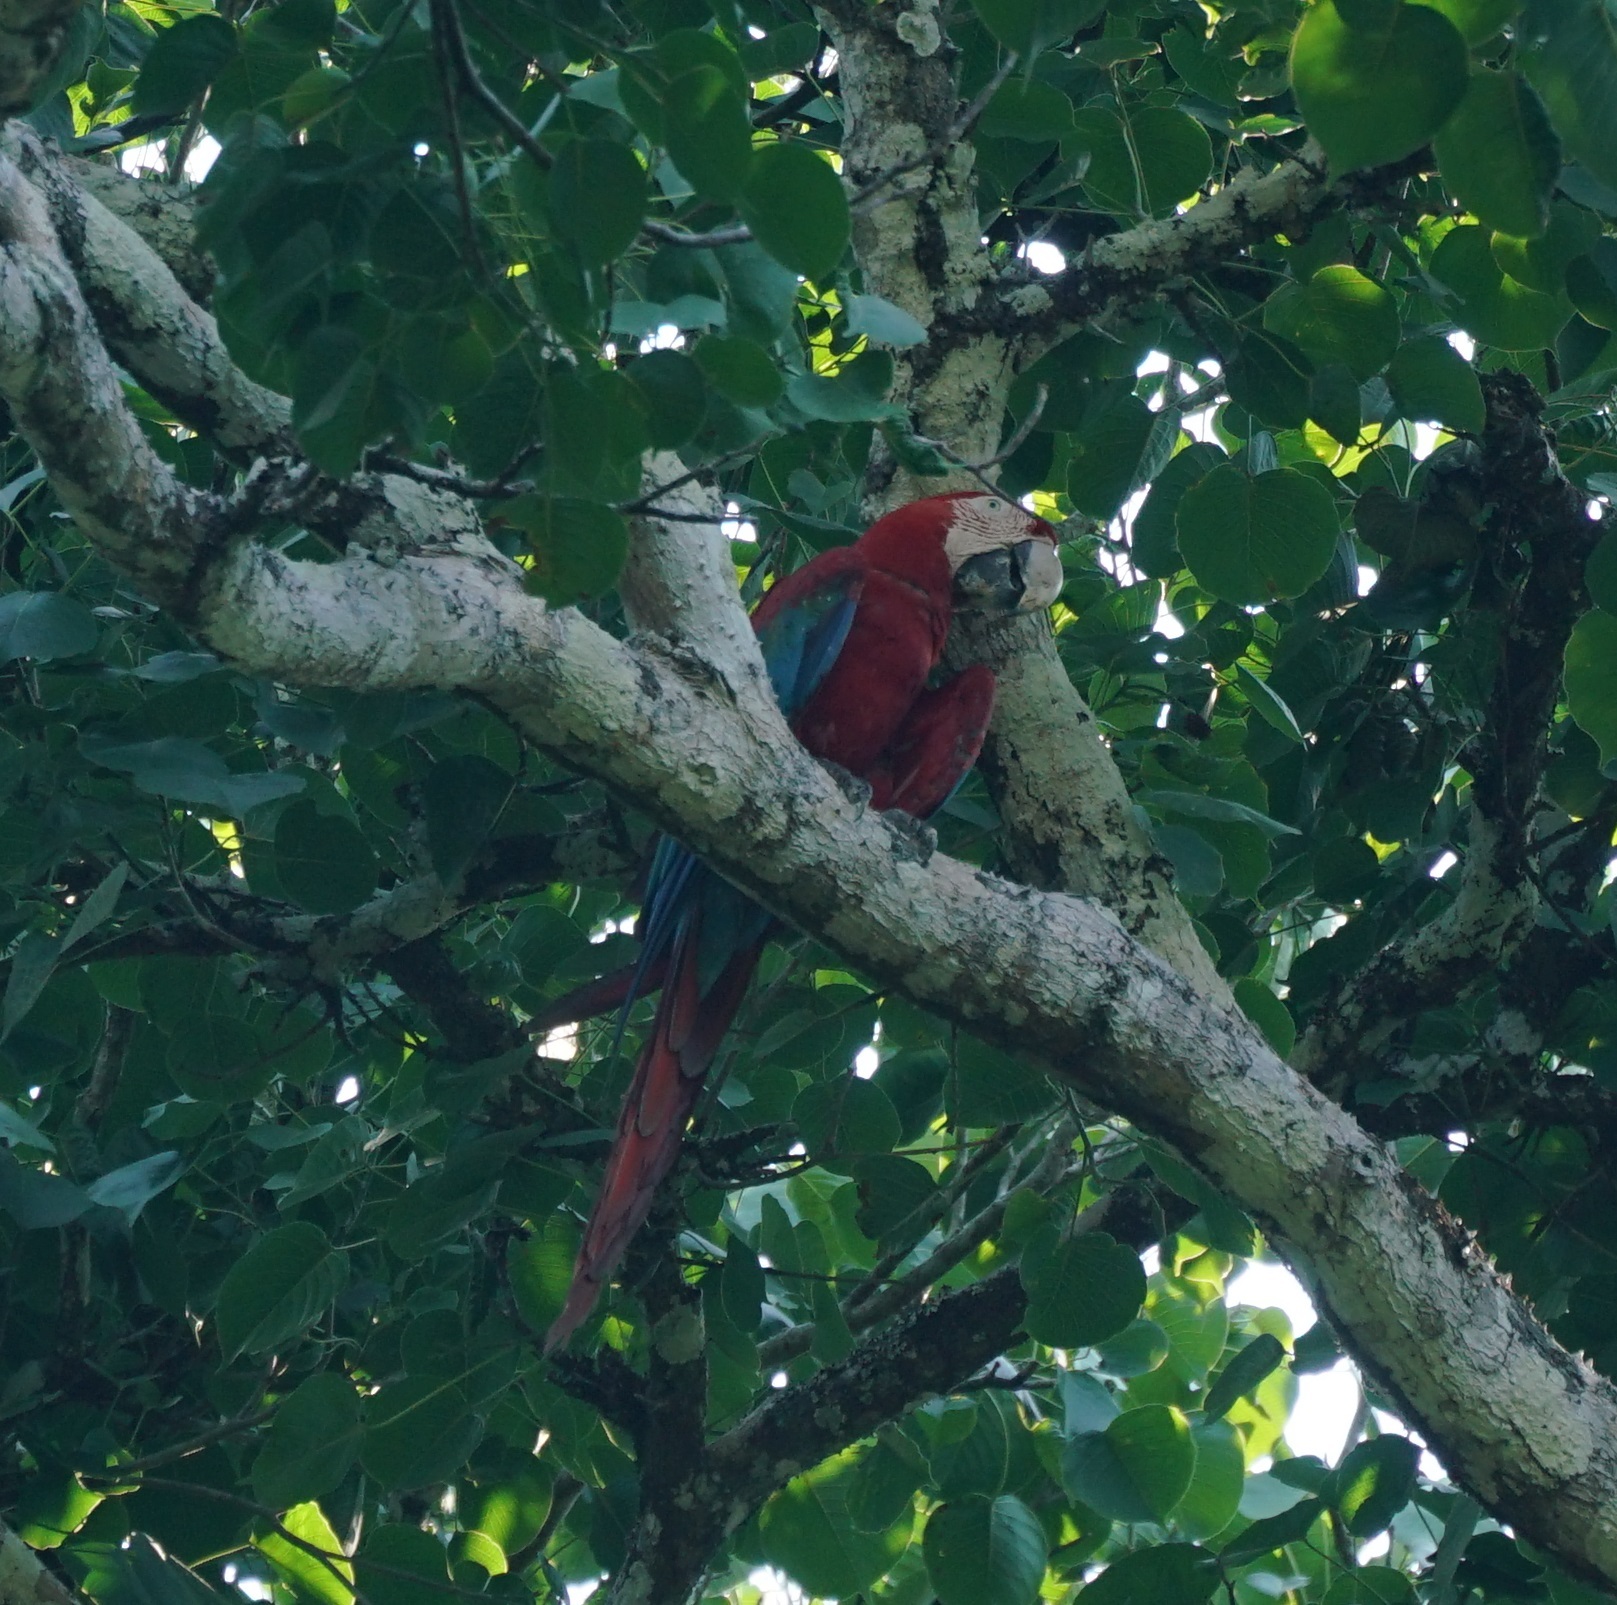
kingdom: Animalia
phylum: Chordata
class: Aves
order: Psittaciformes
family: Psittacidae
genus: Ara
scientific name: Ara chloropterus
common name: Red-and-green macaw
